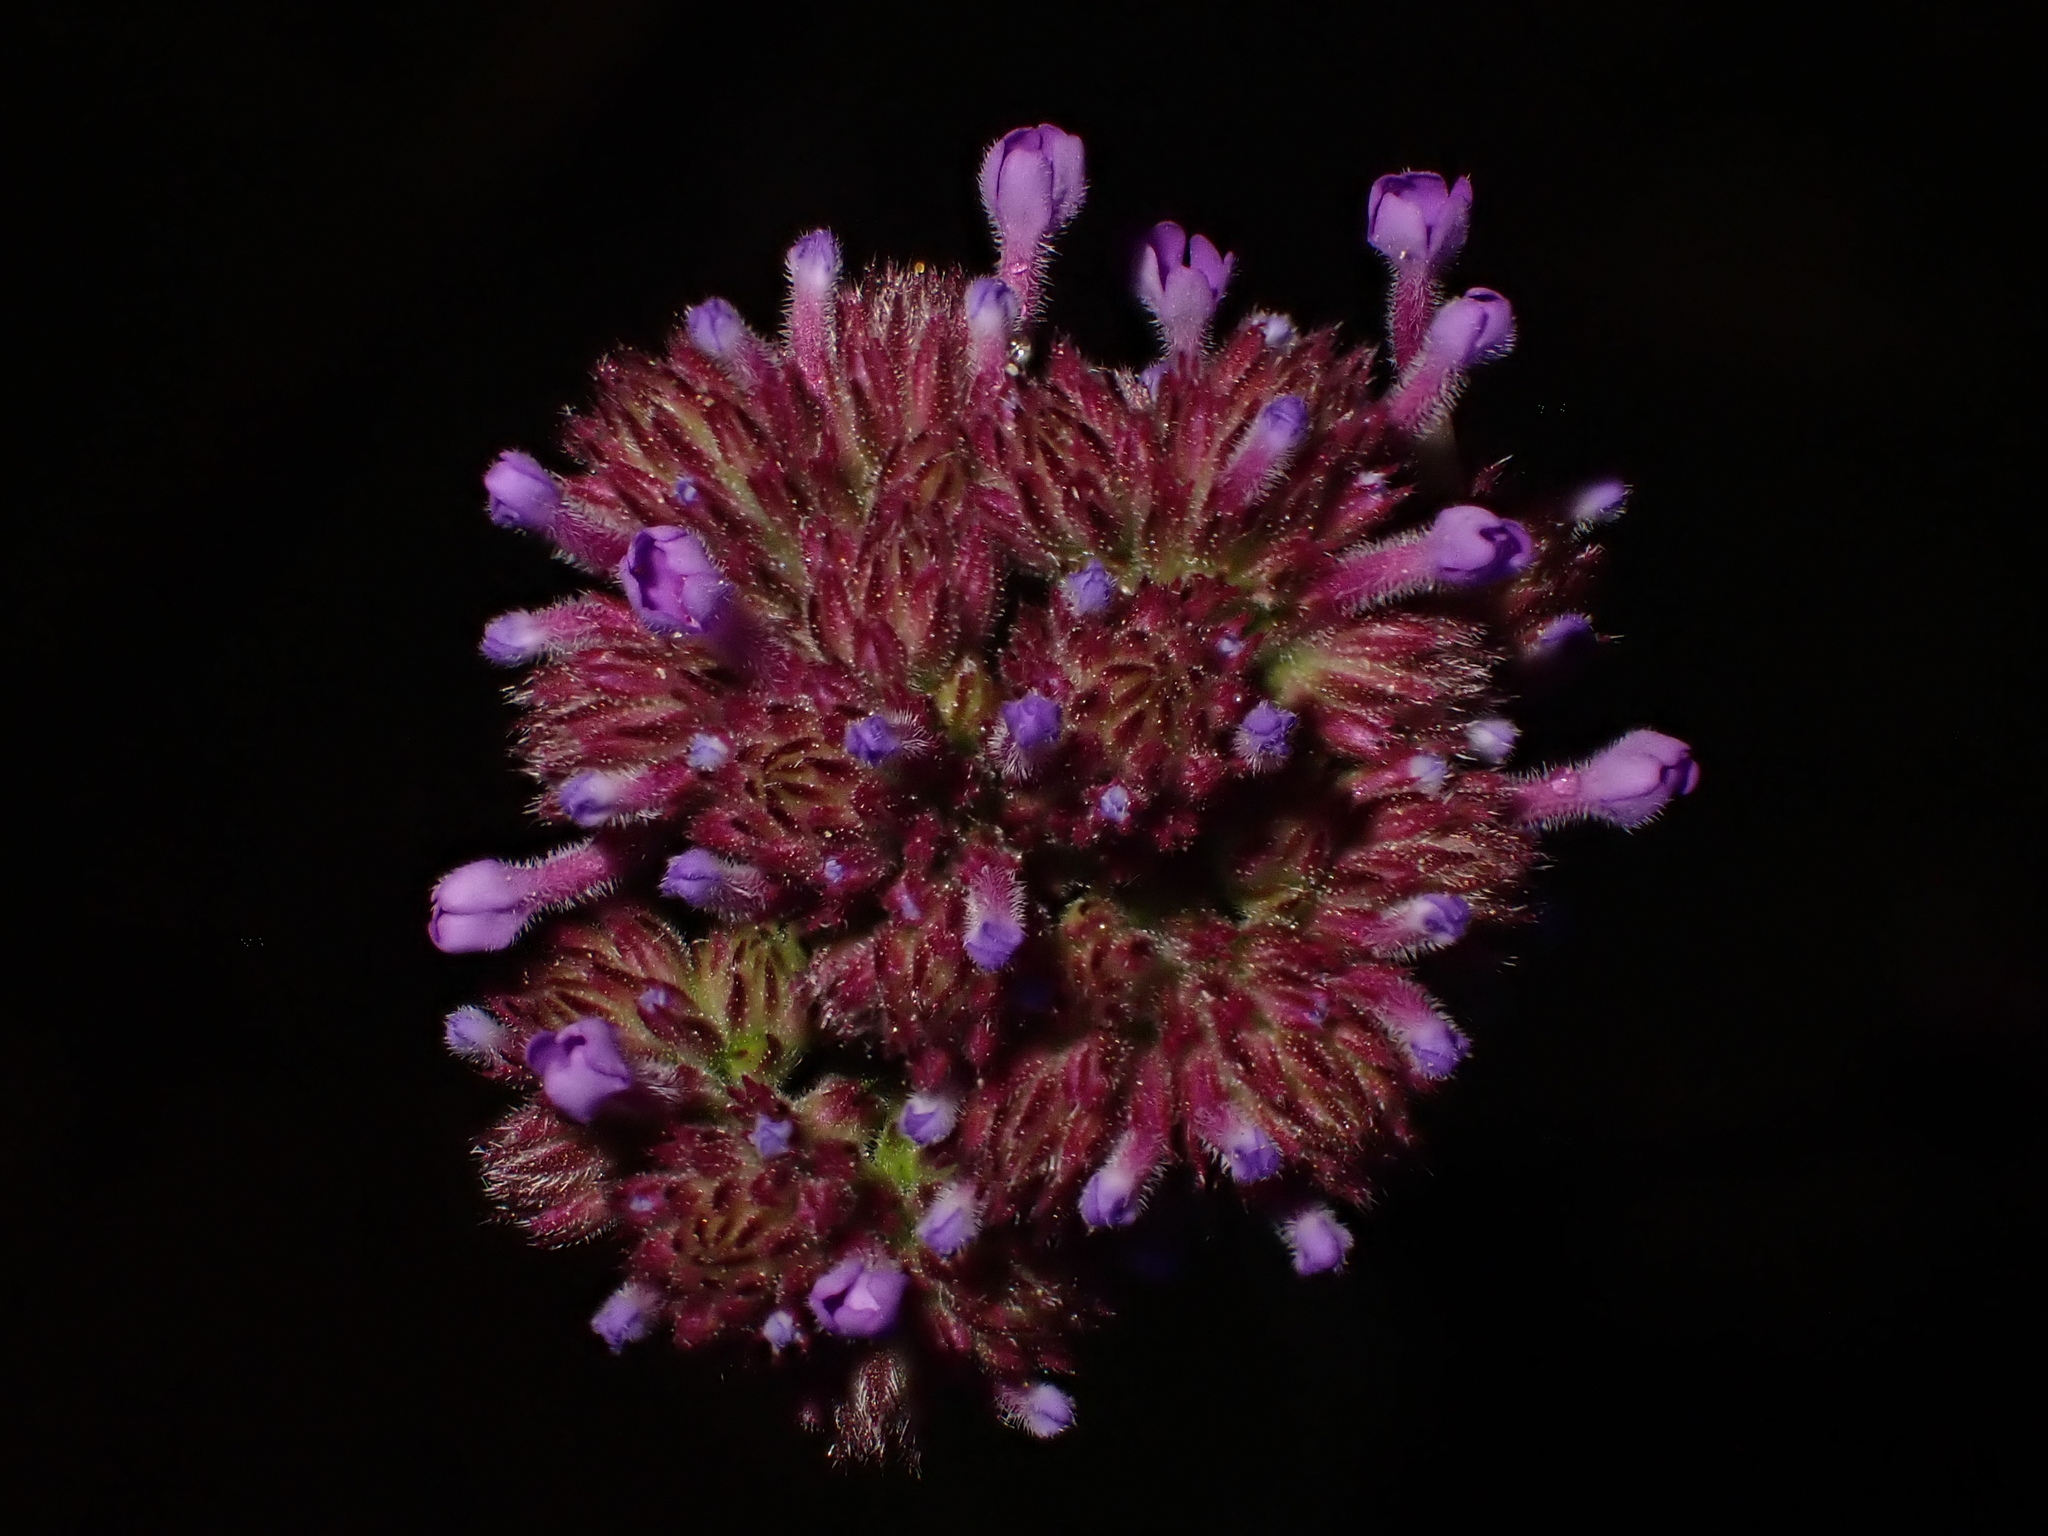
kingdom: Plantae
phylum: Tracheophyta
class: Magnoliopsida
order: Lamiales
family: Verbenaceae
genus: Verbena
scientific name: Verbena incompta
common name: Purpletop vervain
